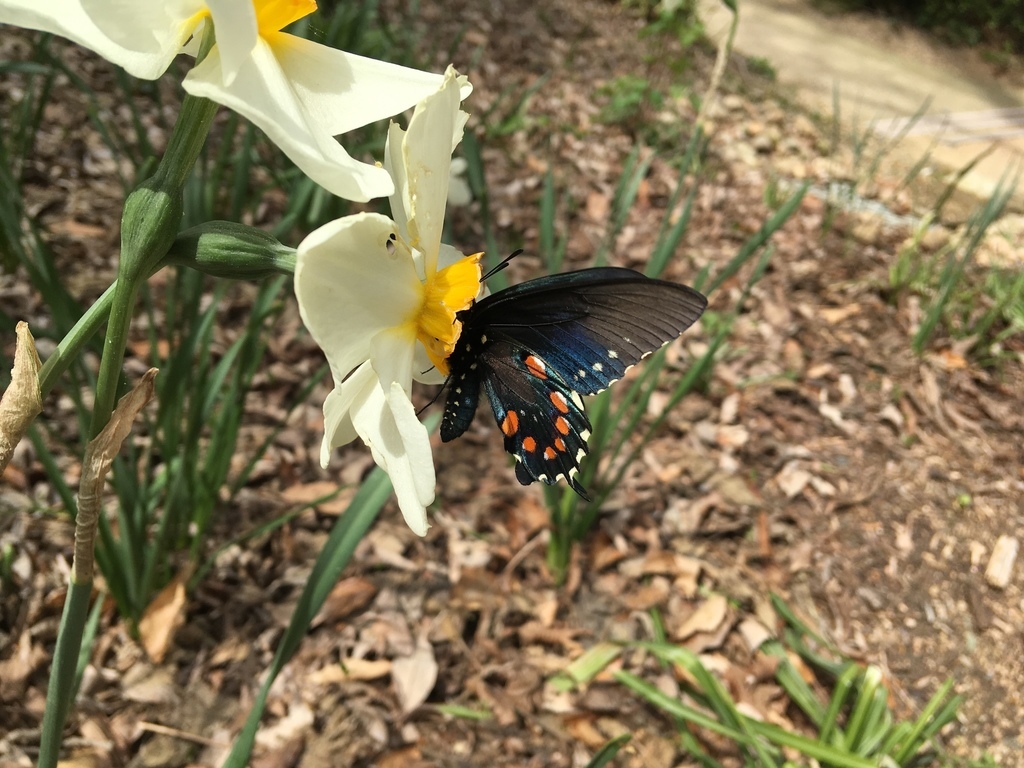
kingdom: Animalia
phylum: Arthropoda
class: Insecta
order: Lepidoptera
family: Papilionidae
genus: Battus
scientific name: Battus philenor
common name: Pipevine swallowtail
